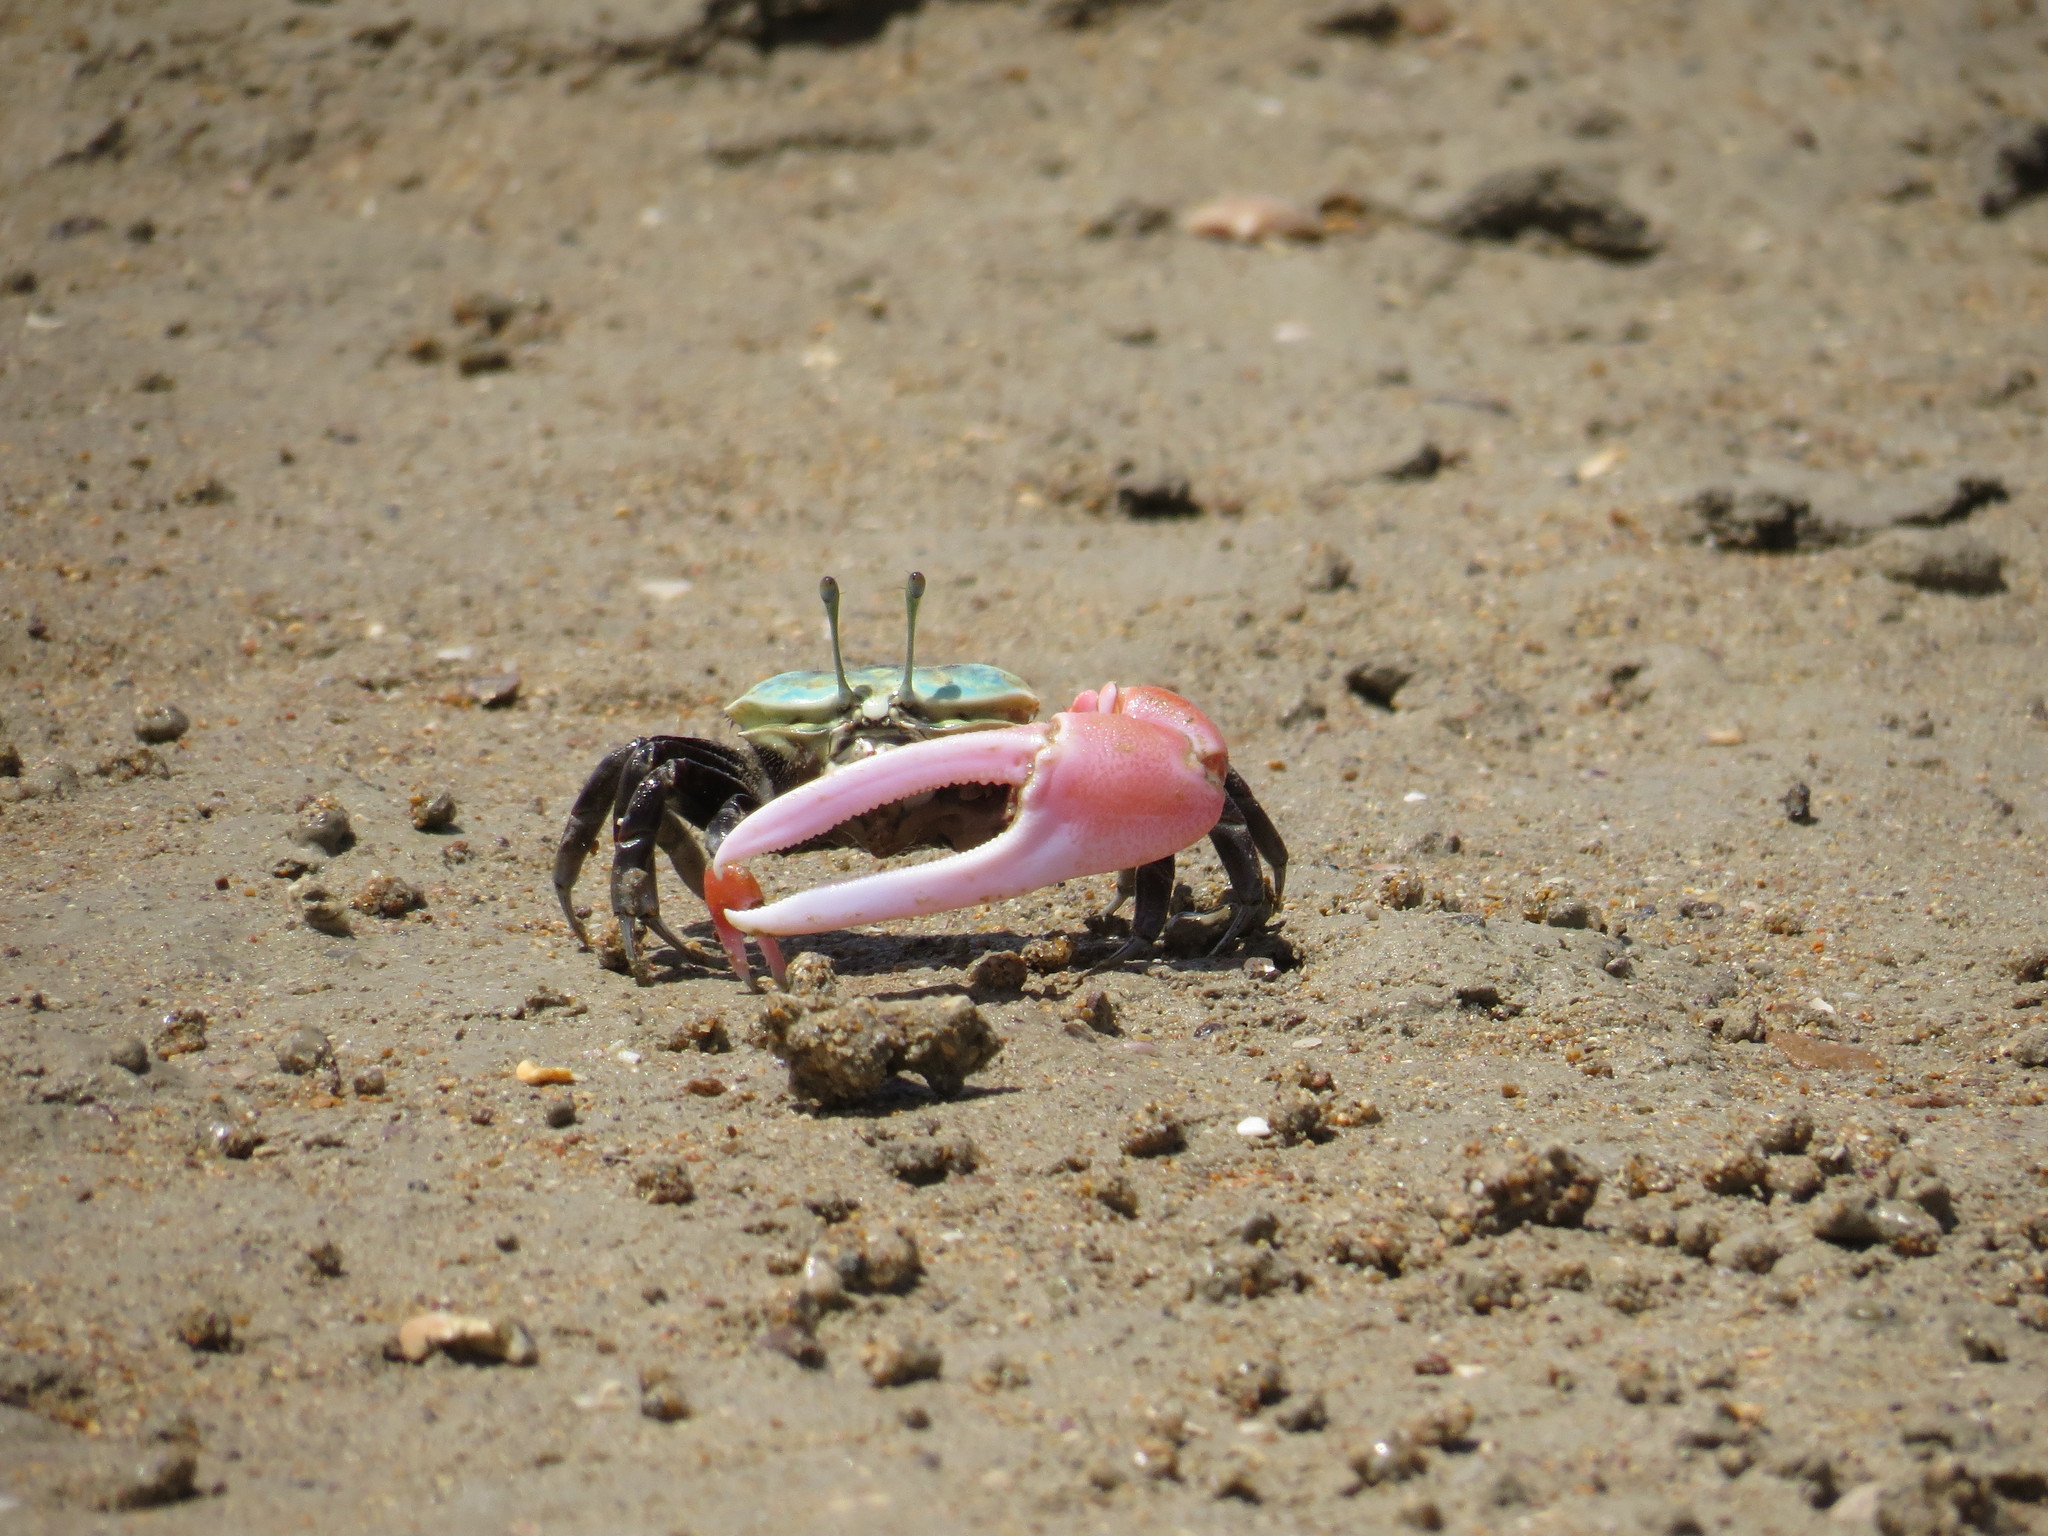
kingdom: Animalia
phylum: Arthropoda
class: Malacostraca
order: Decapoda
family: Ocypodidae
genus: Tubuca
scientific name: Tubuca polita
